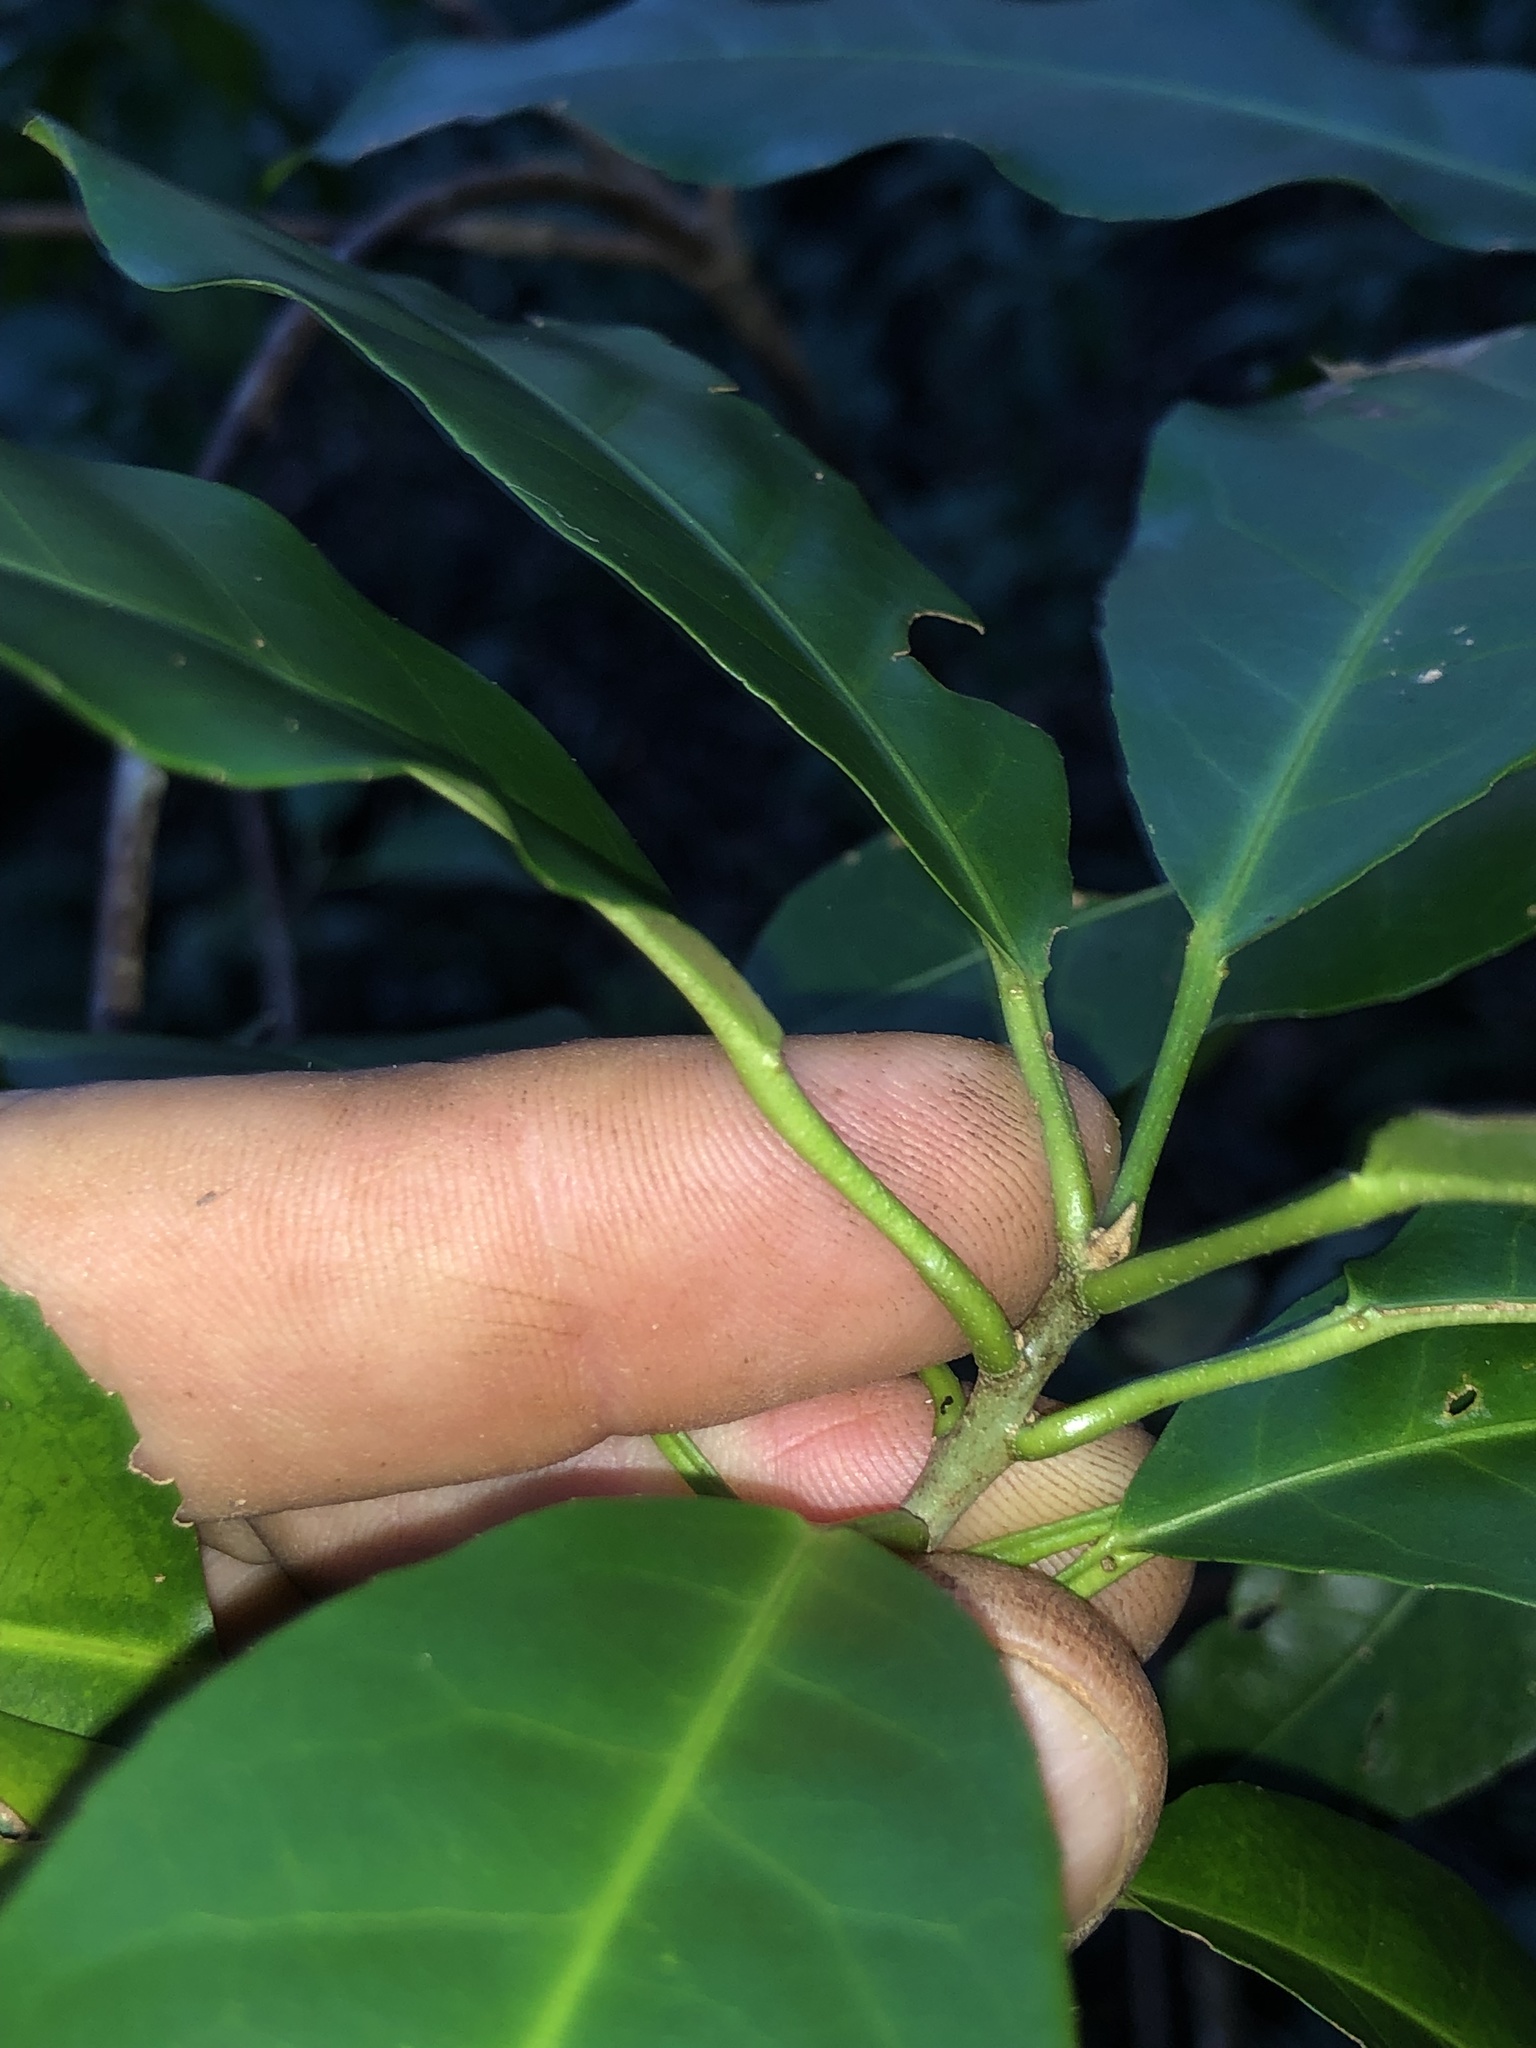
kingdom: Plantae
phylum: Tracheophyta
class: Magnoliopsida
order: Malpighiales
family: Euphorbiaceae
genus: Croton
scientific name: Croton verreauxii
